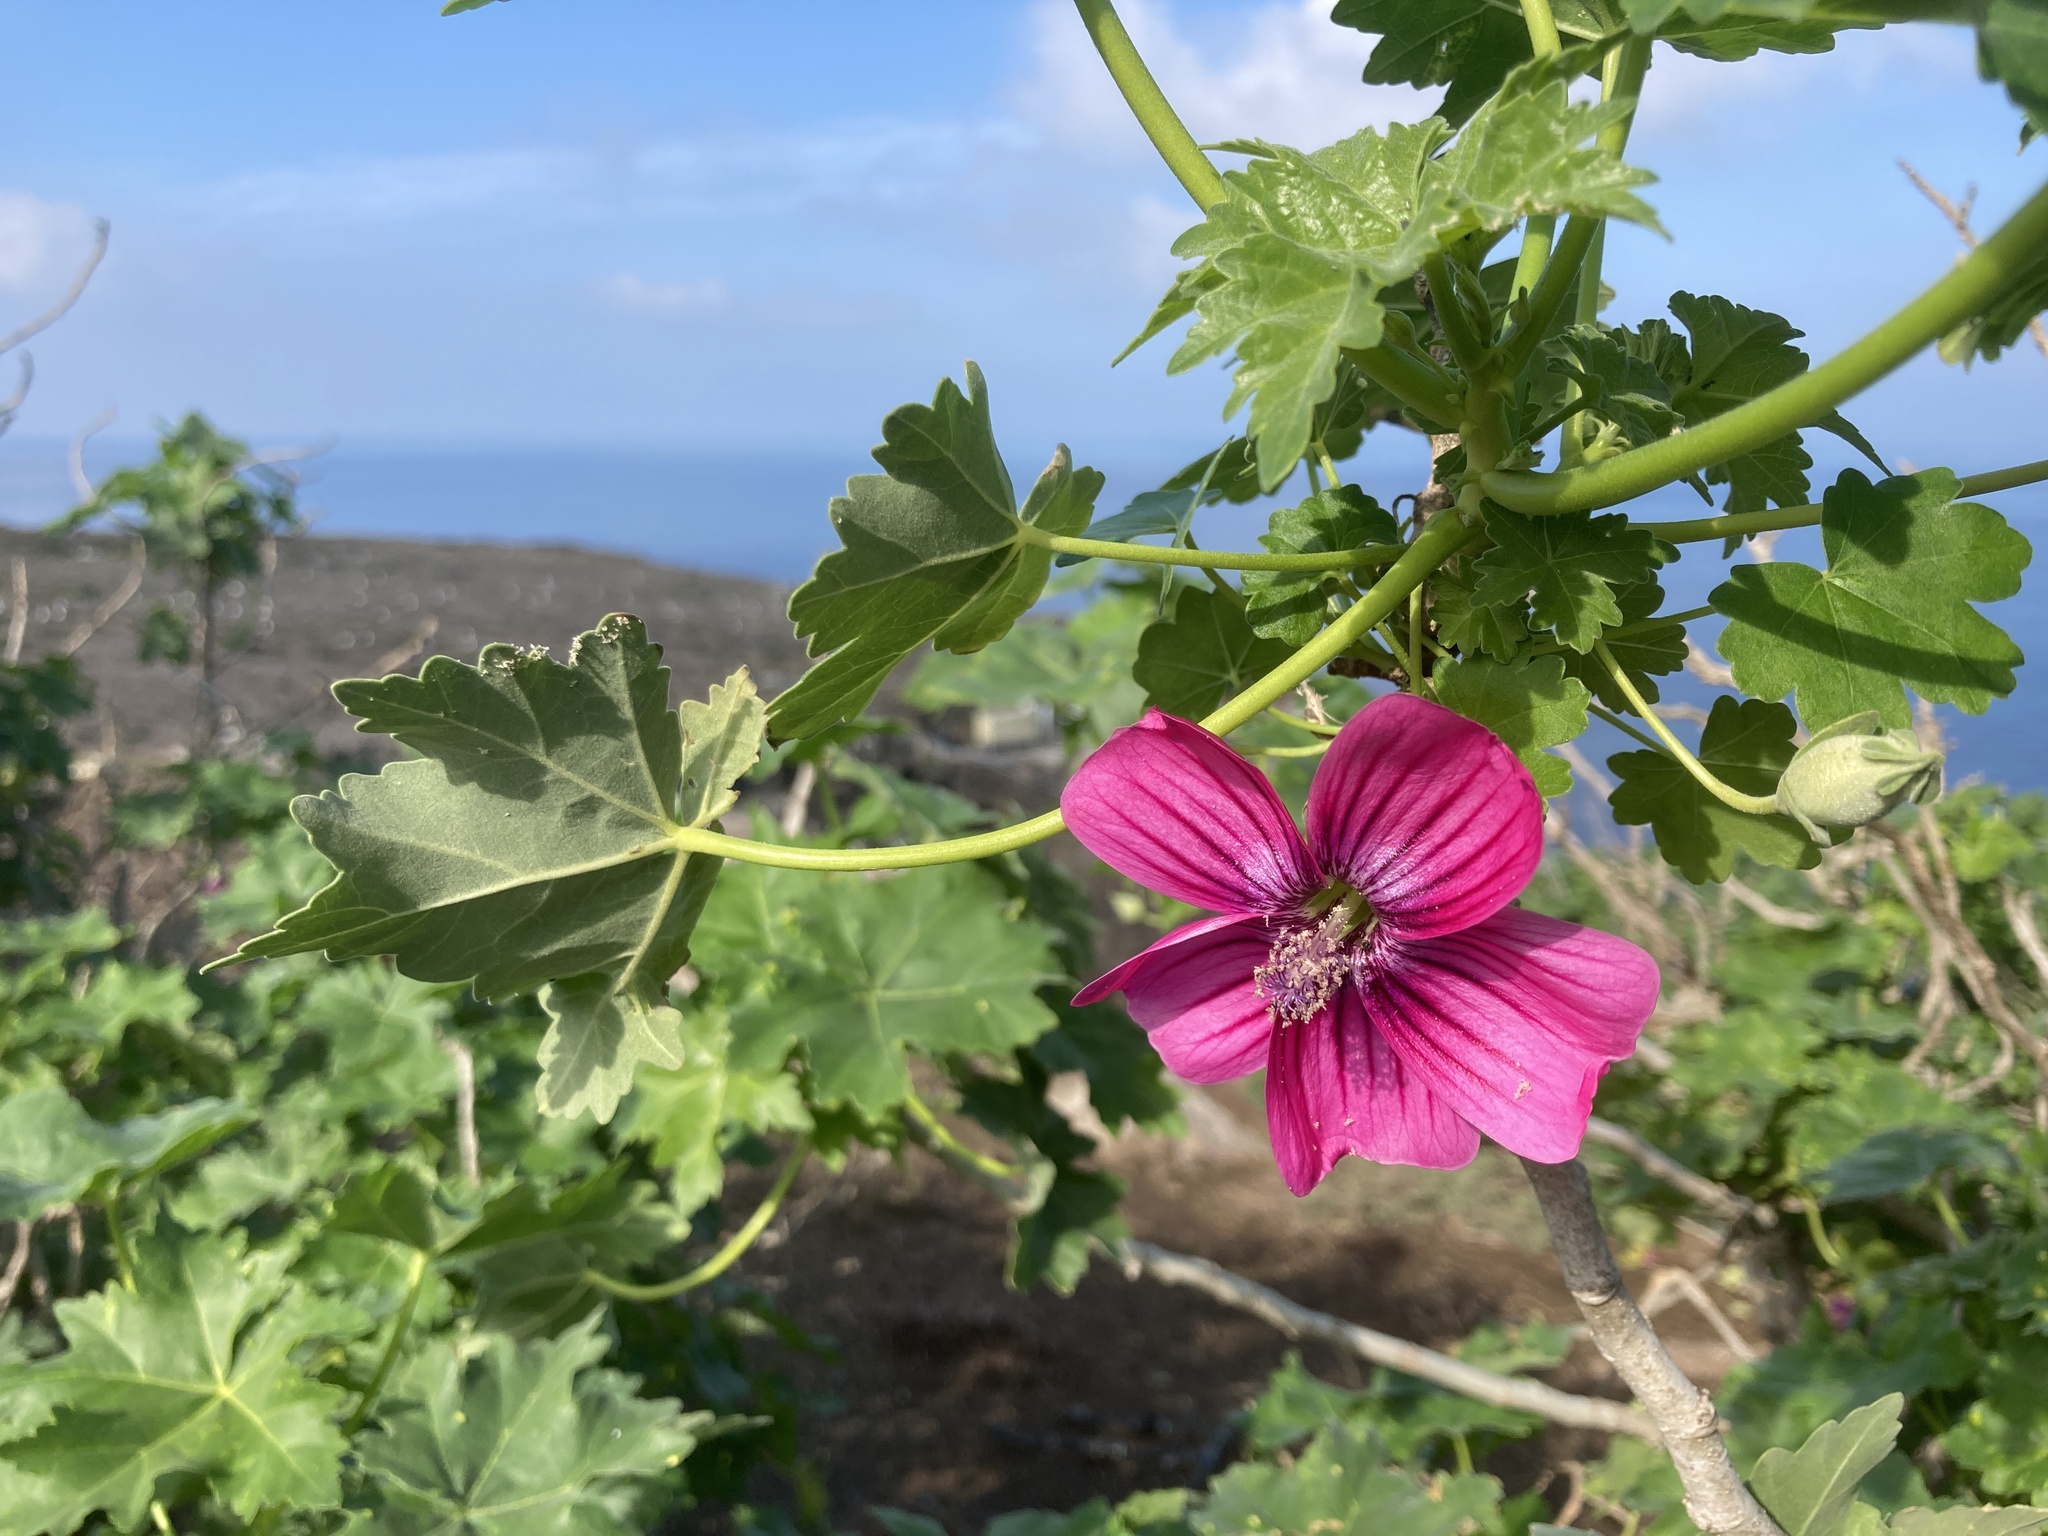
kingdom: Plantae
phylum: Tracheophyta
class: Magnoliopsida
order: Malvales
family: Malvaceae
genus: Malva
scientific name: Malva assurgentiflora
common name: Island mallow
